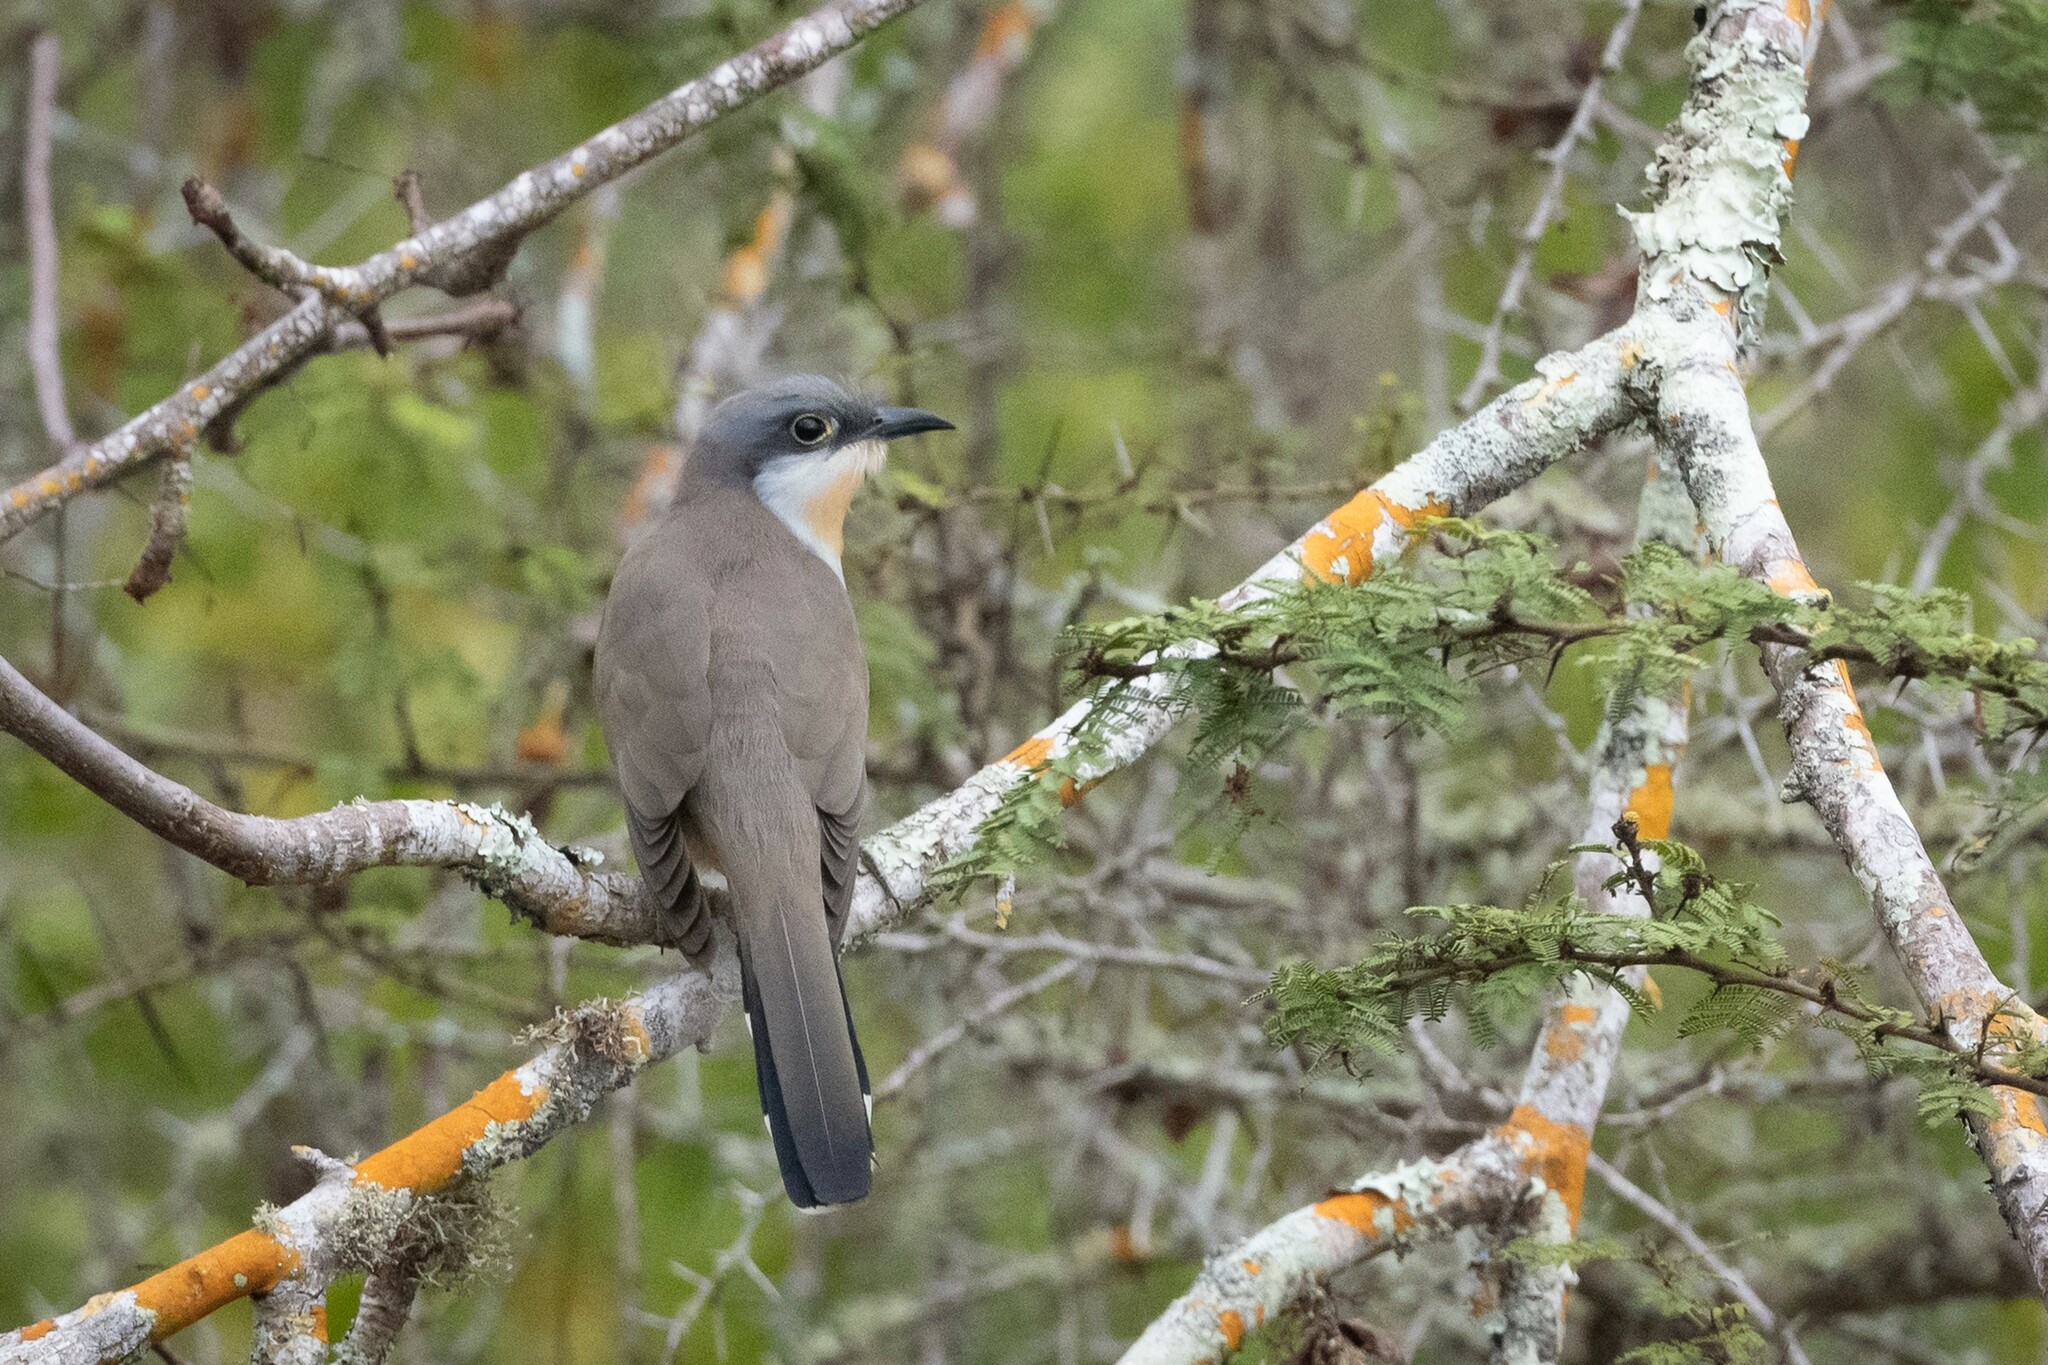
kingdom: Animalia
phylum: Chordata
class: Aves
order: Cuculiformes
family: Cuculidae
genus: Coccyzus
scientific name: Coccyzus melacoryphus
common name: Dark-billed cuckoo
